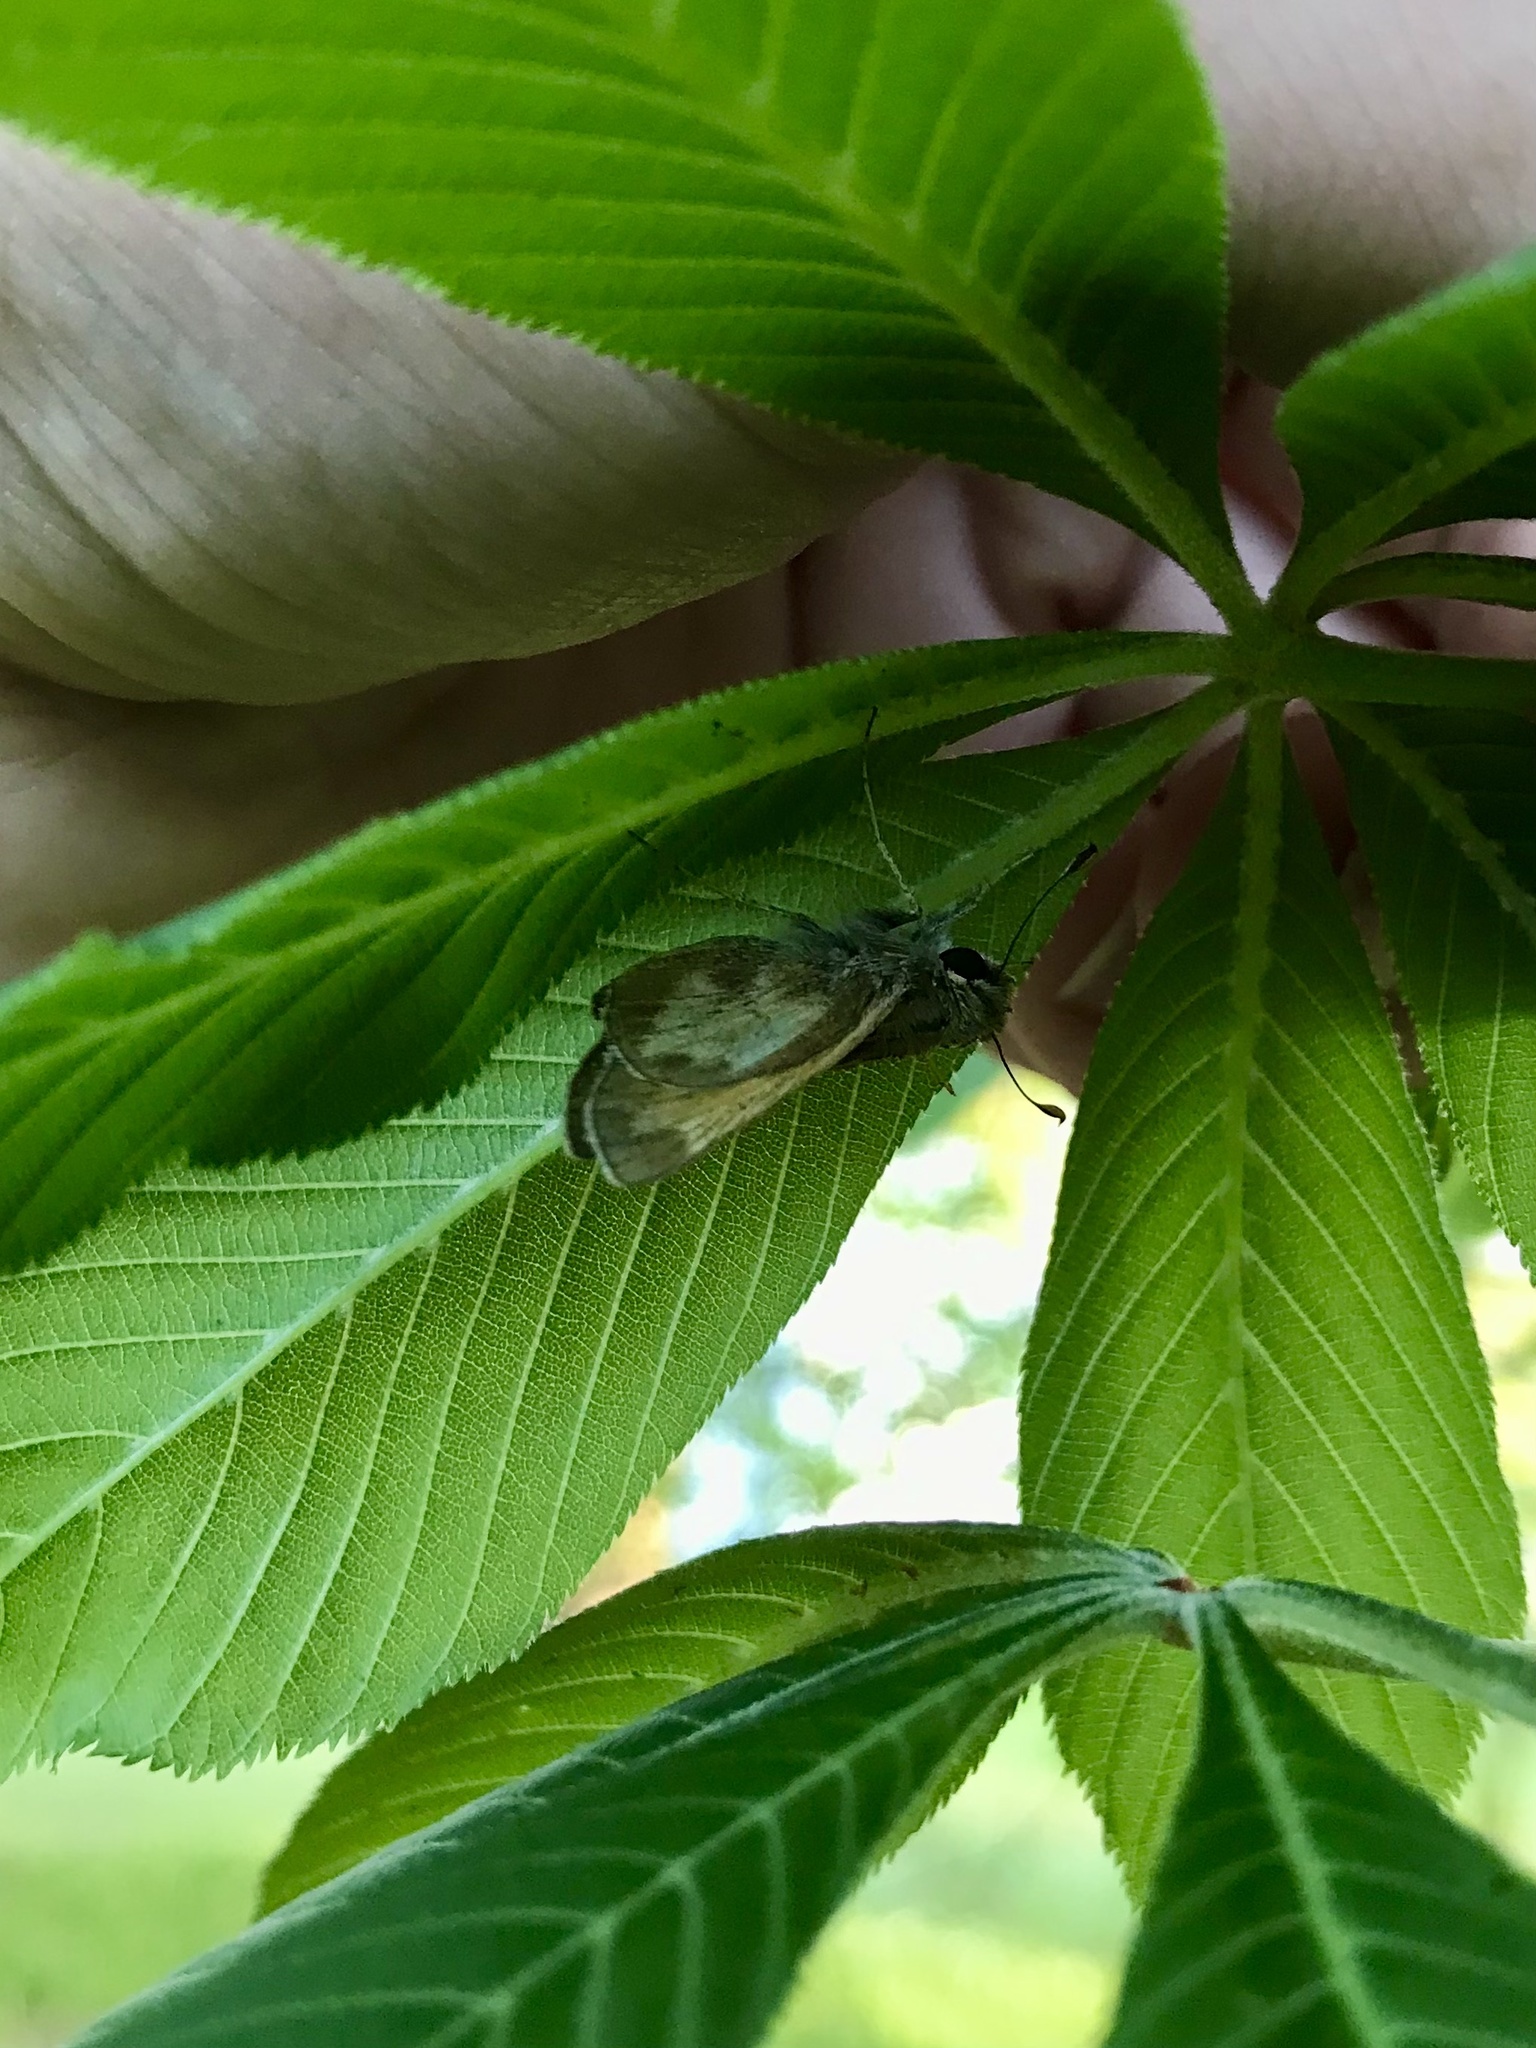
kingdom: Animalia
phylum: Arthropoda
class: Insecta
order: Lepidoptera
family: Hesperiidae
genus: Lon
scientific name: Lon hobomok
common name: Hobomok skipper
